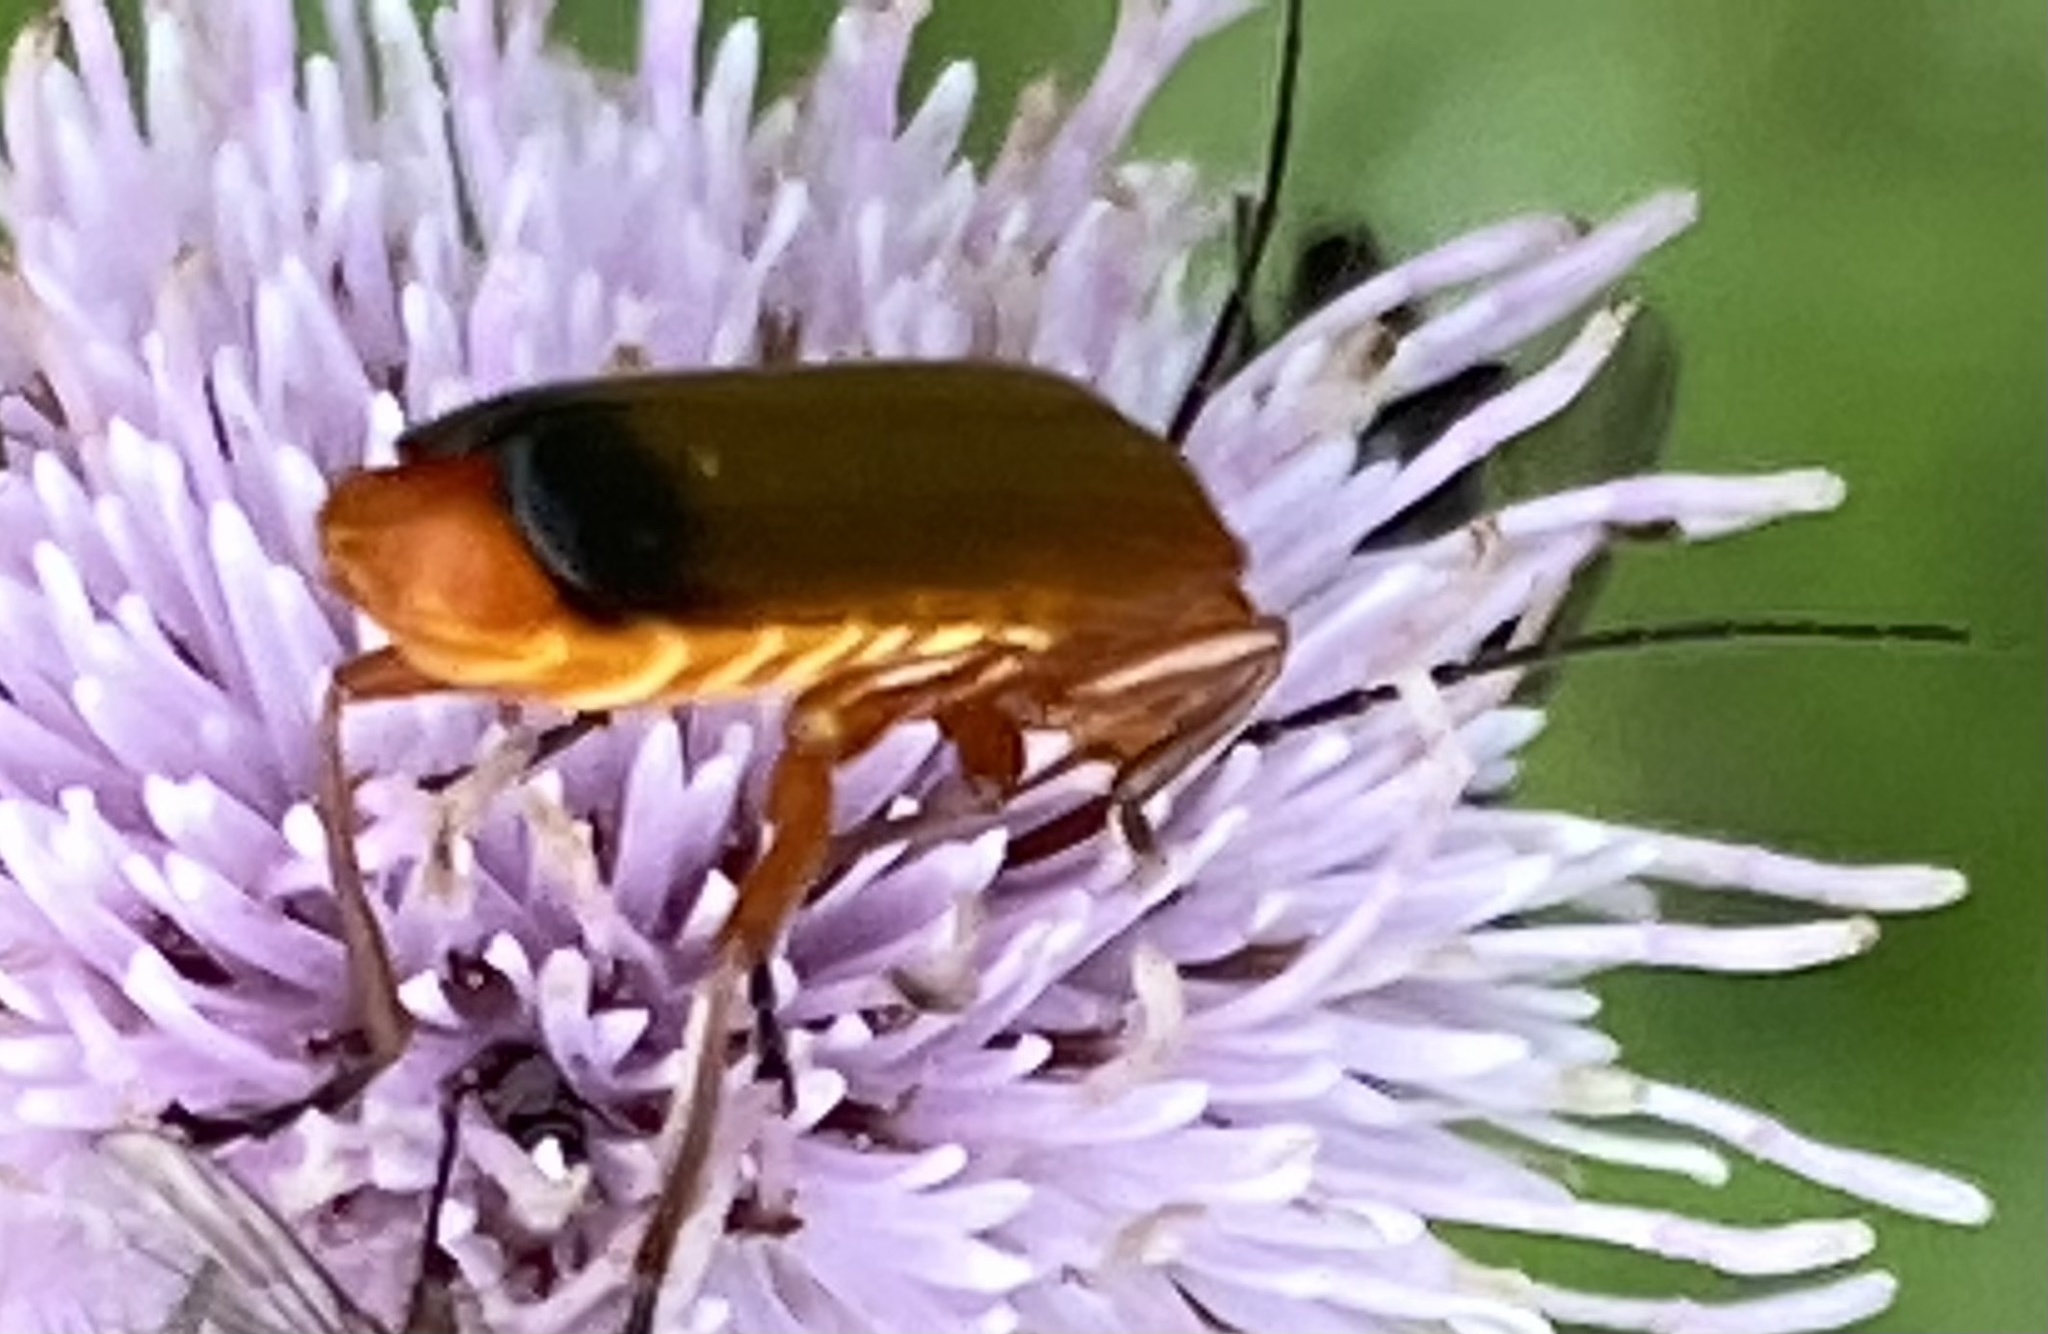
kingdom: Animalia
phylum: Arthropoda
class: Insecta
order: Coleoptera
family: Cantharidae
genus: Rhagonycha
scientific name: Rhagonycha fulva
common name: Common red soldier beetle
